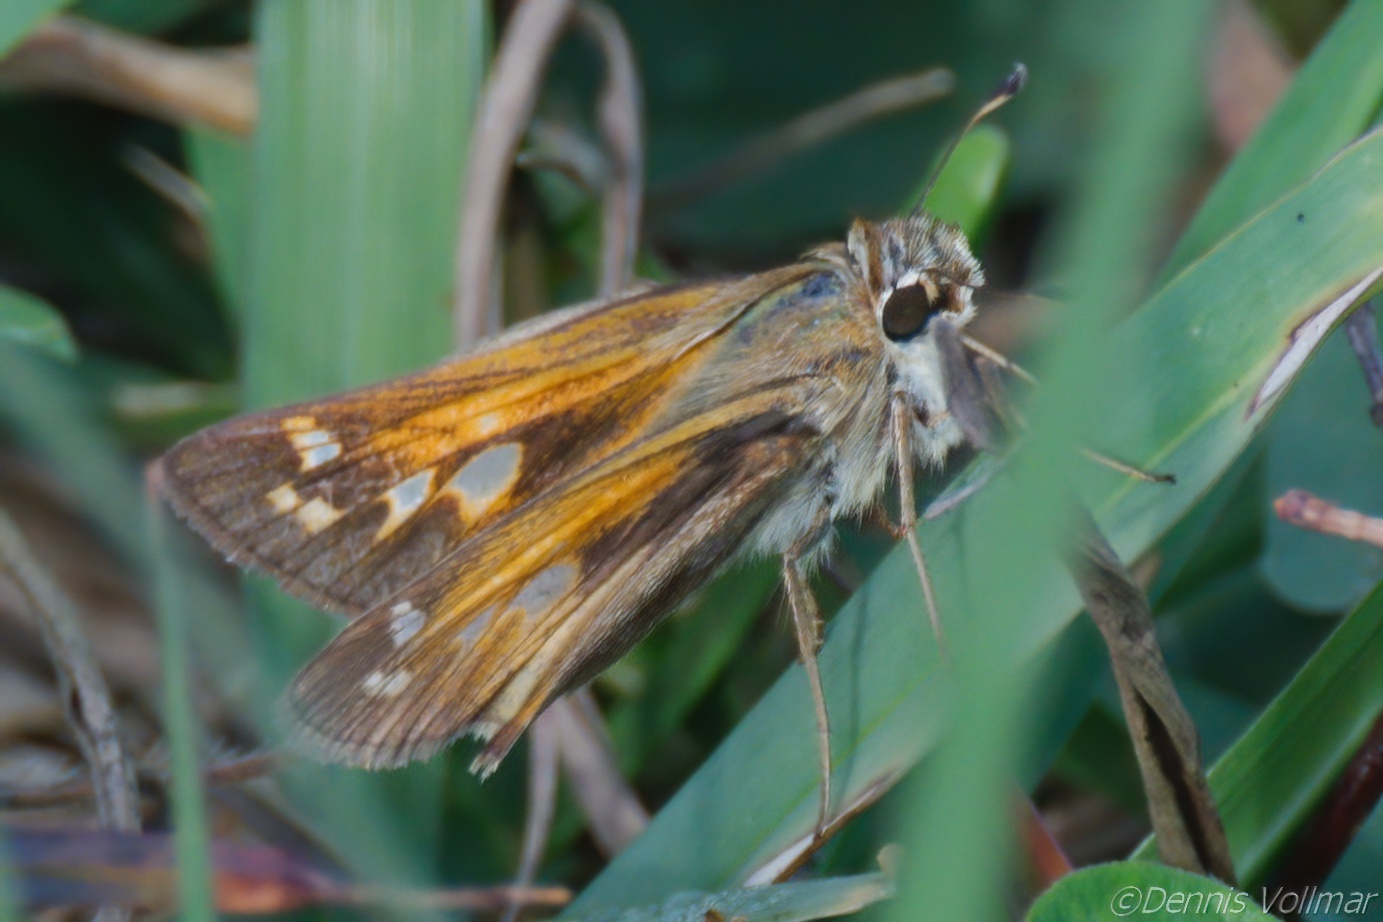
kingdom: Animalia
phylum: Arthropoda
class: Insecta
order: Lepidoptera
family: Hesperiidae
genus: Atalopedes
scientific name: Atalopedes
